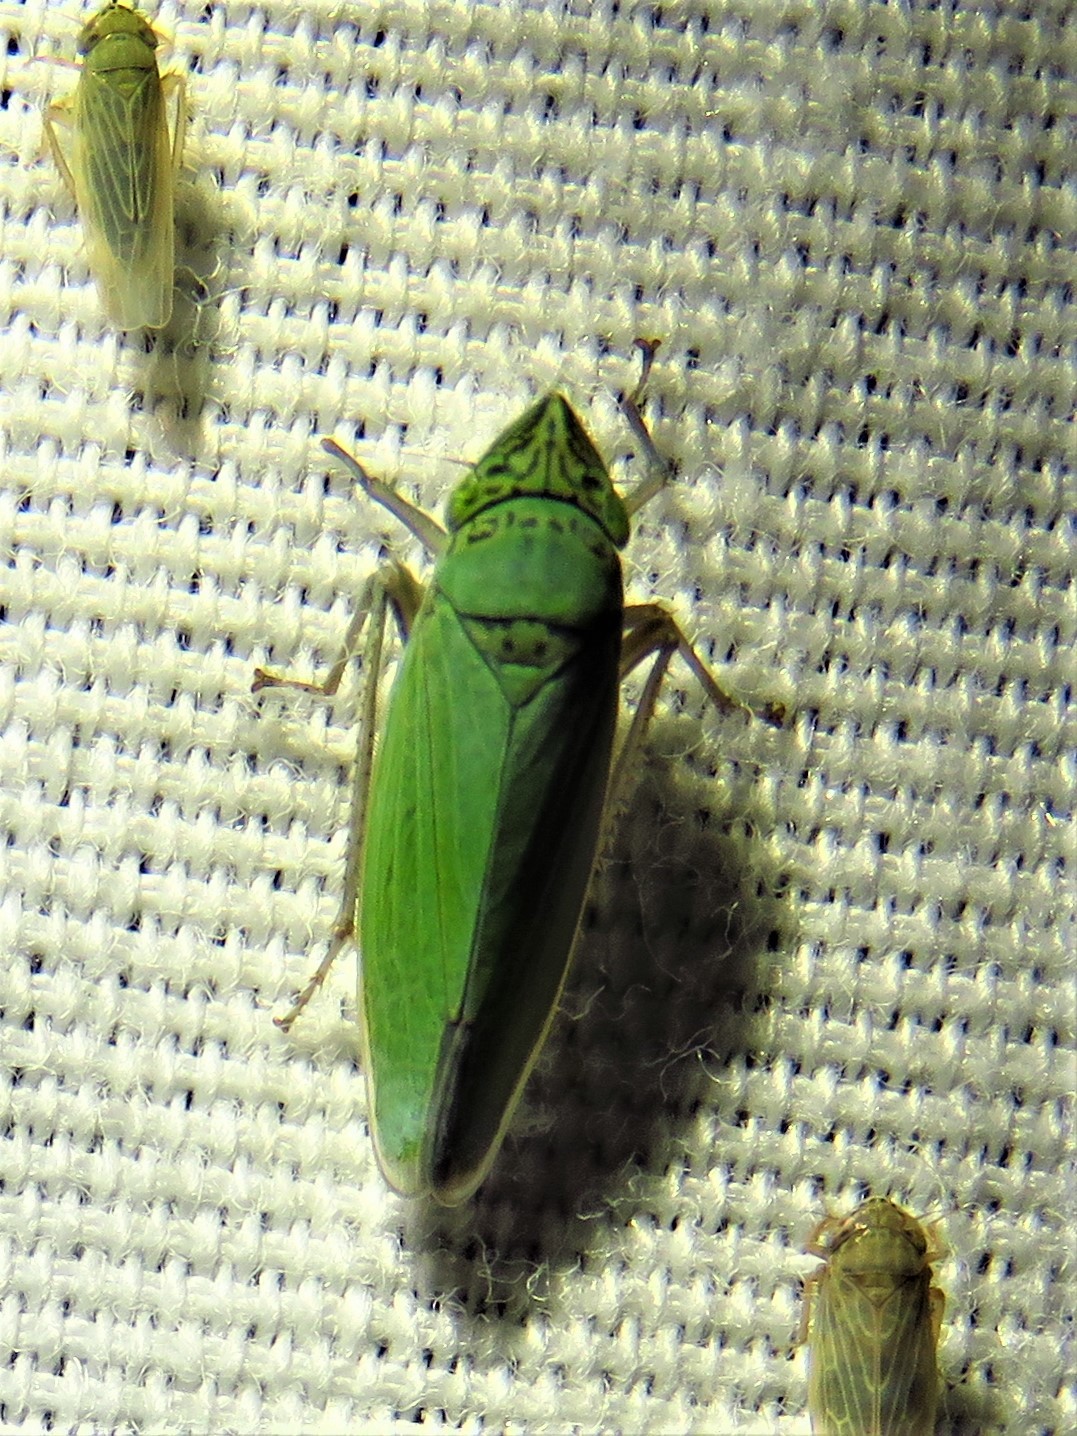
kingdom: Animalia
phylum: Arthropoda
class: Insecta
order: Hemiptera
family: Cicadellidae
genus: Draeculacephala
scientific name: Draeculacephala inscripta
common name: Leafhopper
